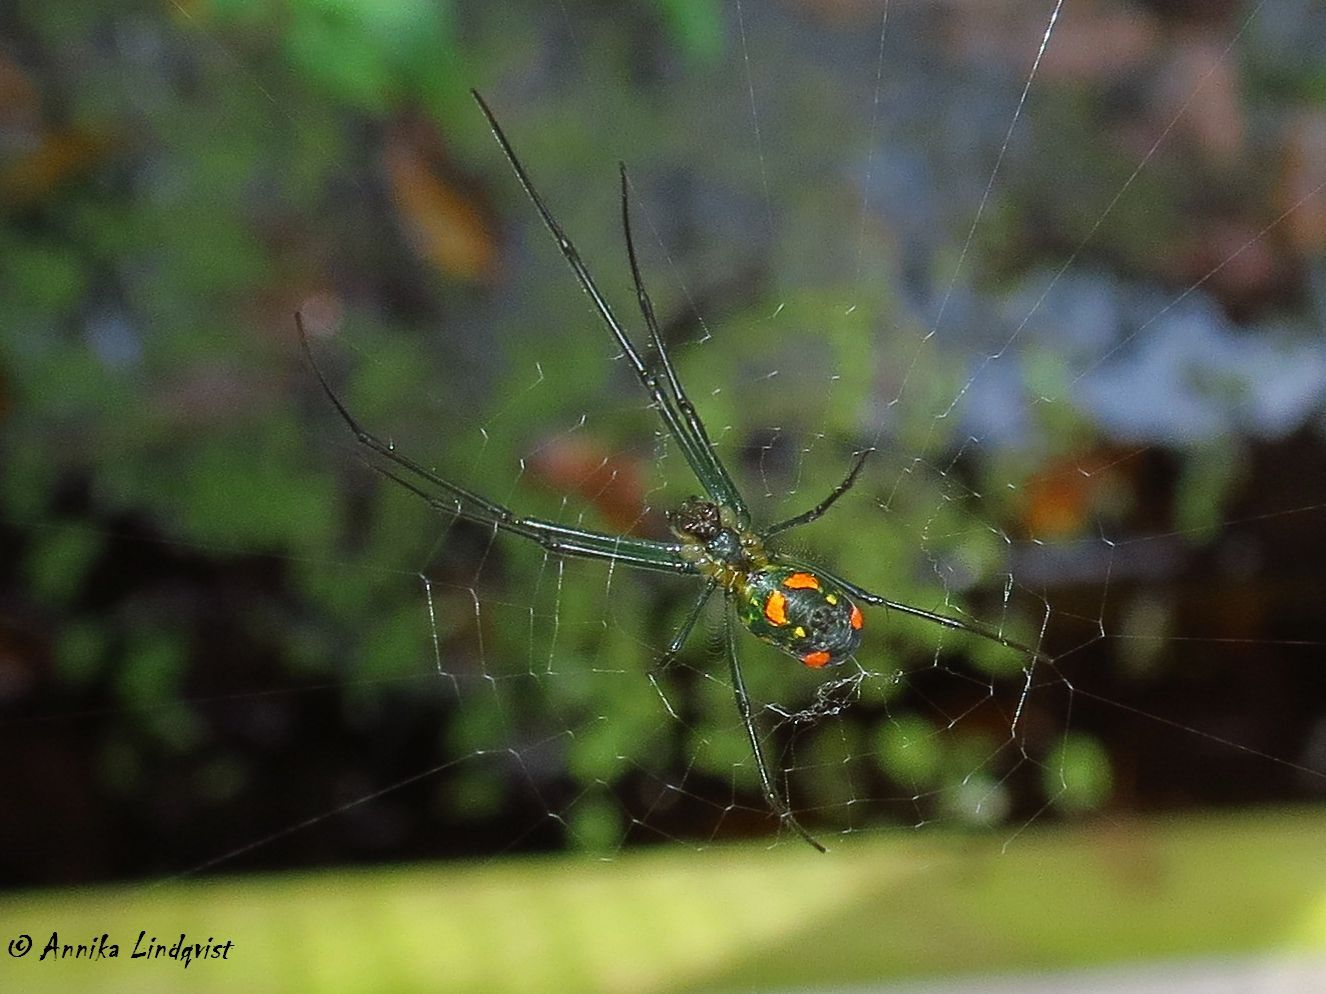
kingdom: Animalia
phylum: Arthropoda
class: Arachnida
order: Araneae
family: Tetragnathidae
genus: Leucauge
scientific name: Leucauge argyrobapta
